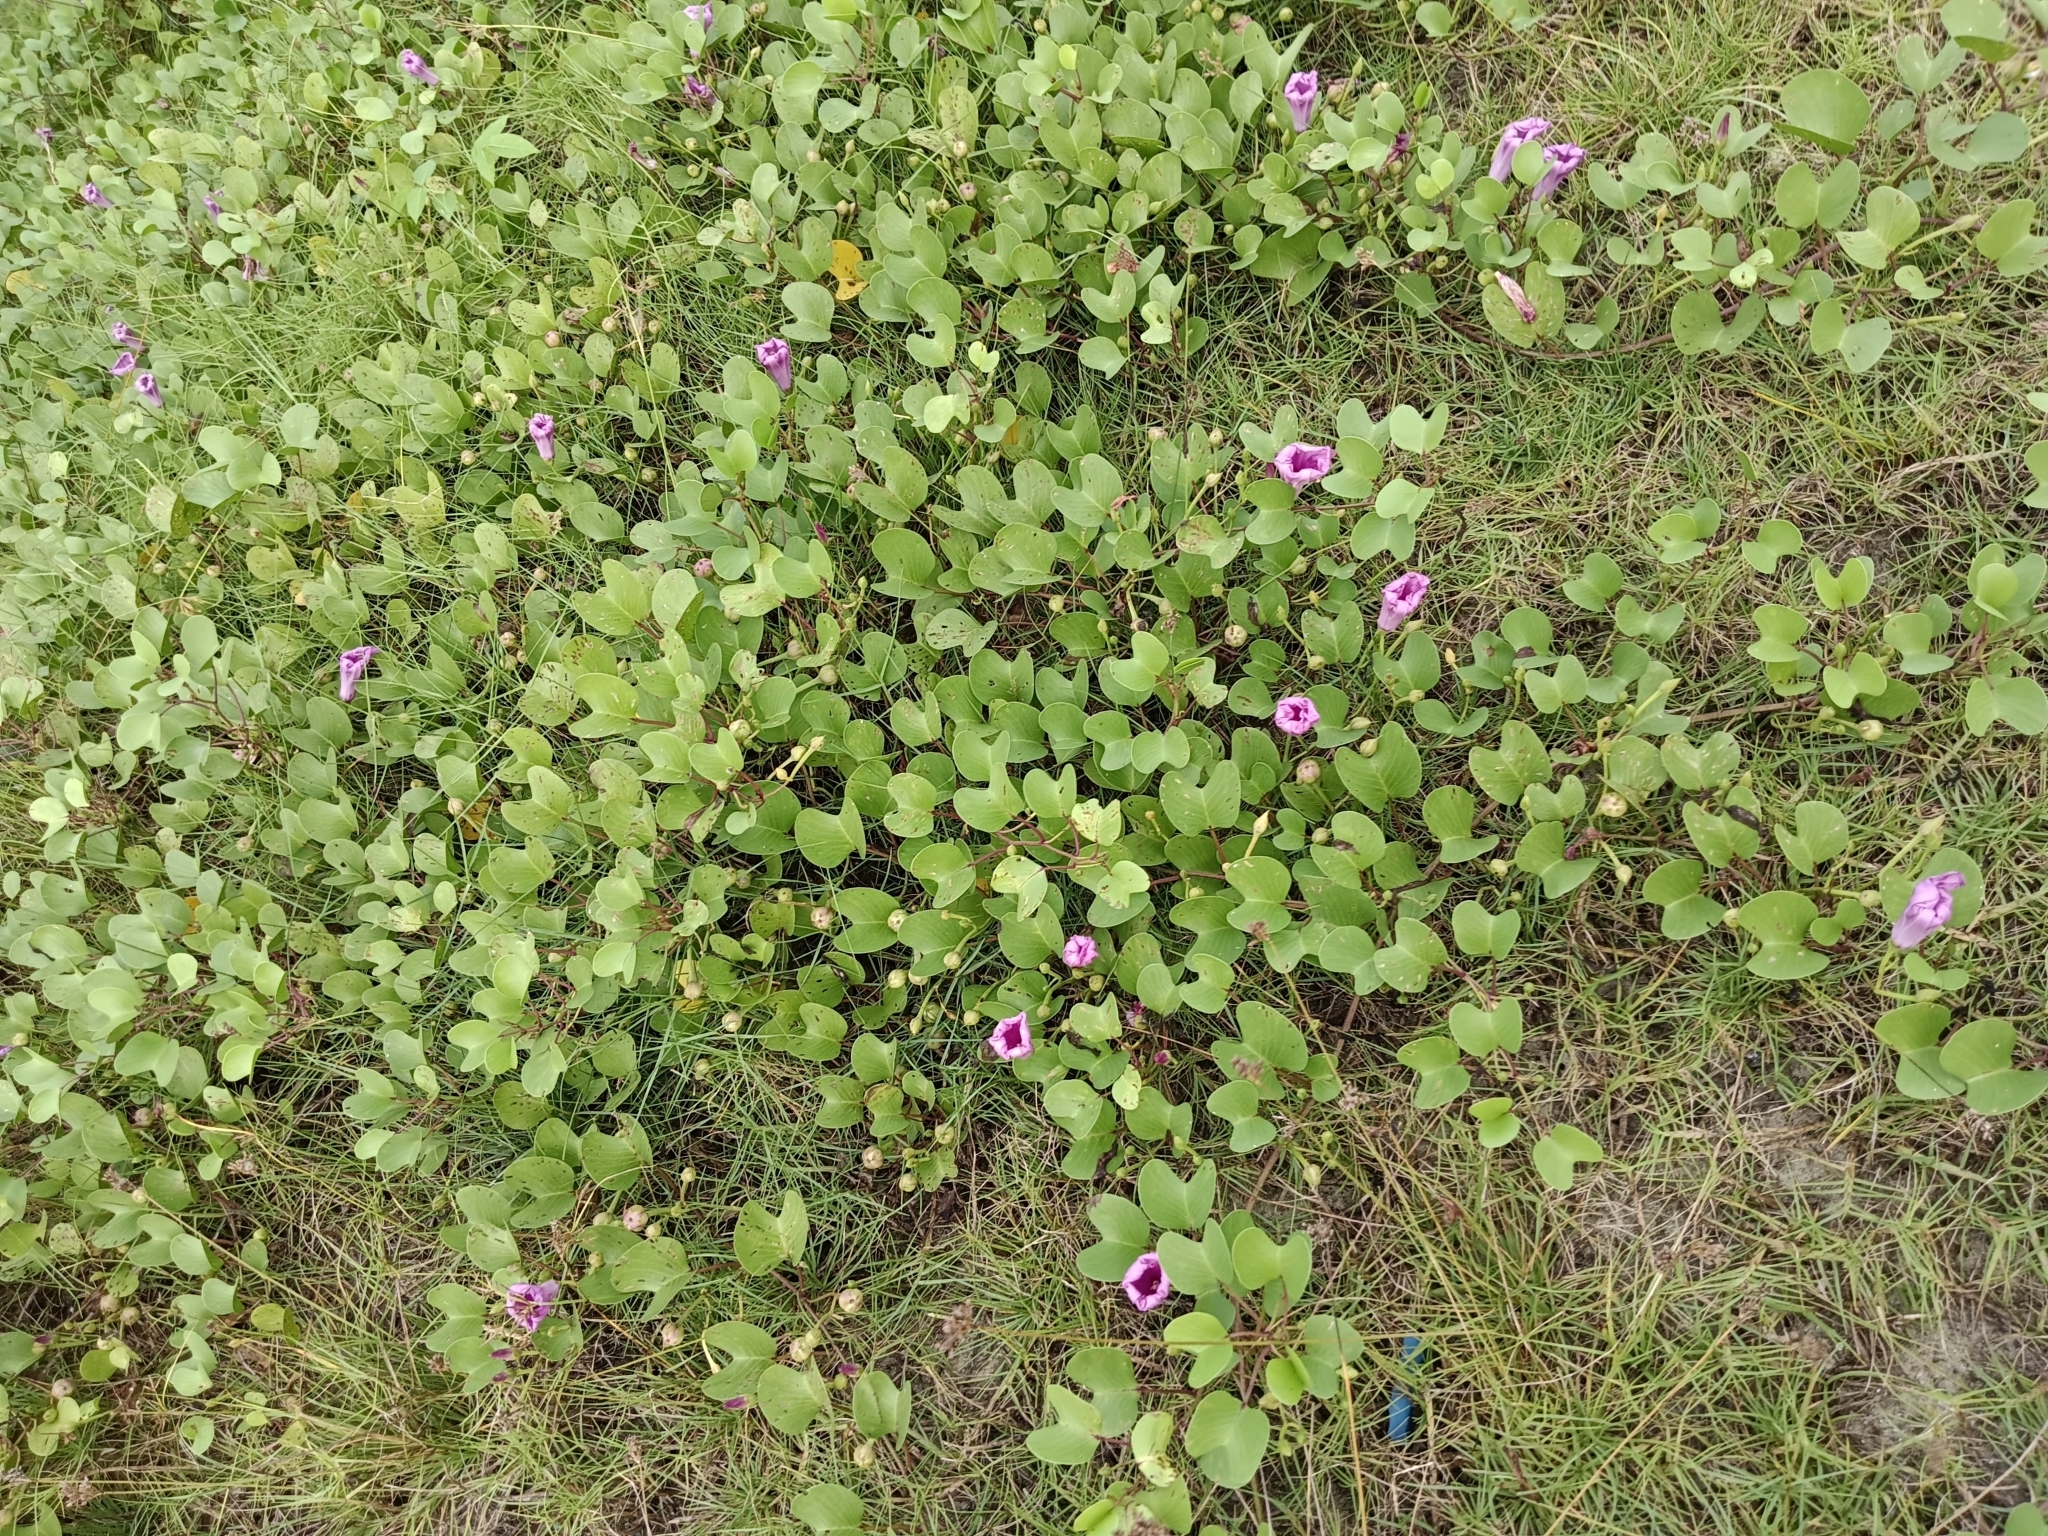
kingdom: Plantae
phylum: Tracheophyta
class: Magnoliopsida
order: Solanales
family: Convolvulaceae
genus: Ipomoea
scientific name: Ipomoea pes-caprae
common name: Beach morning glory
